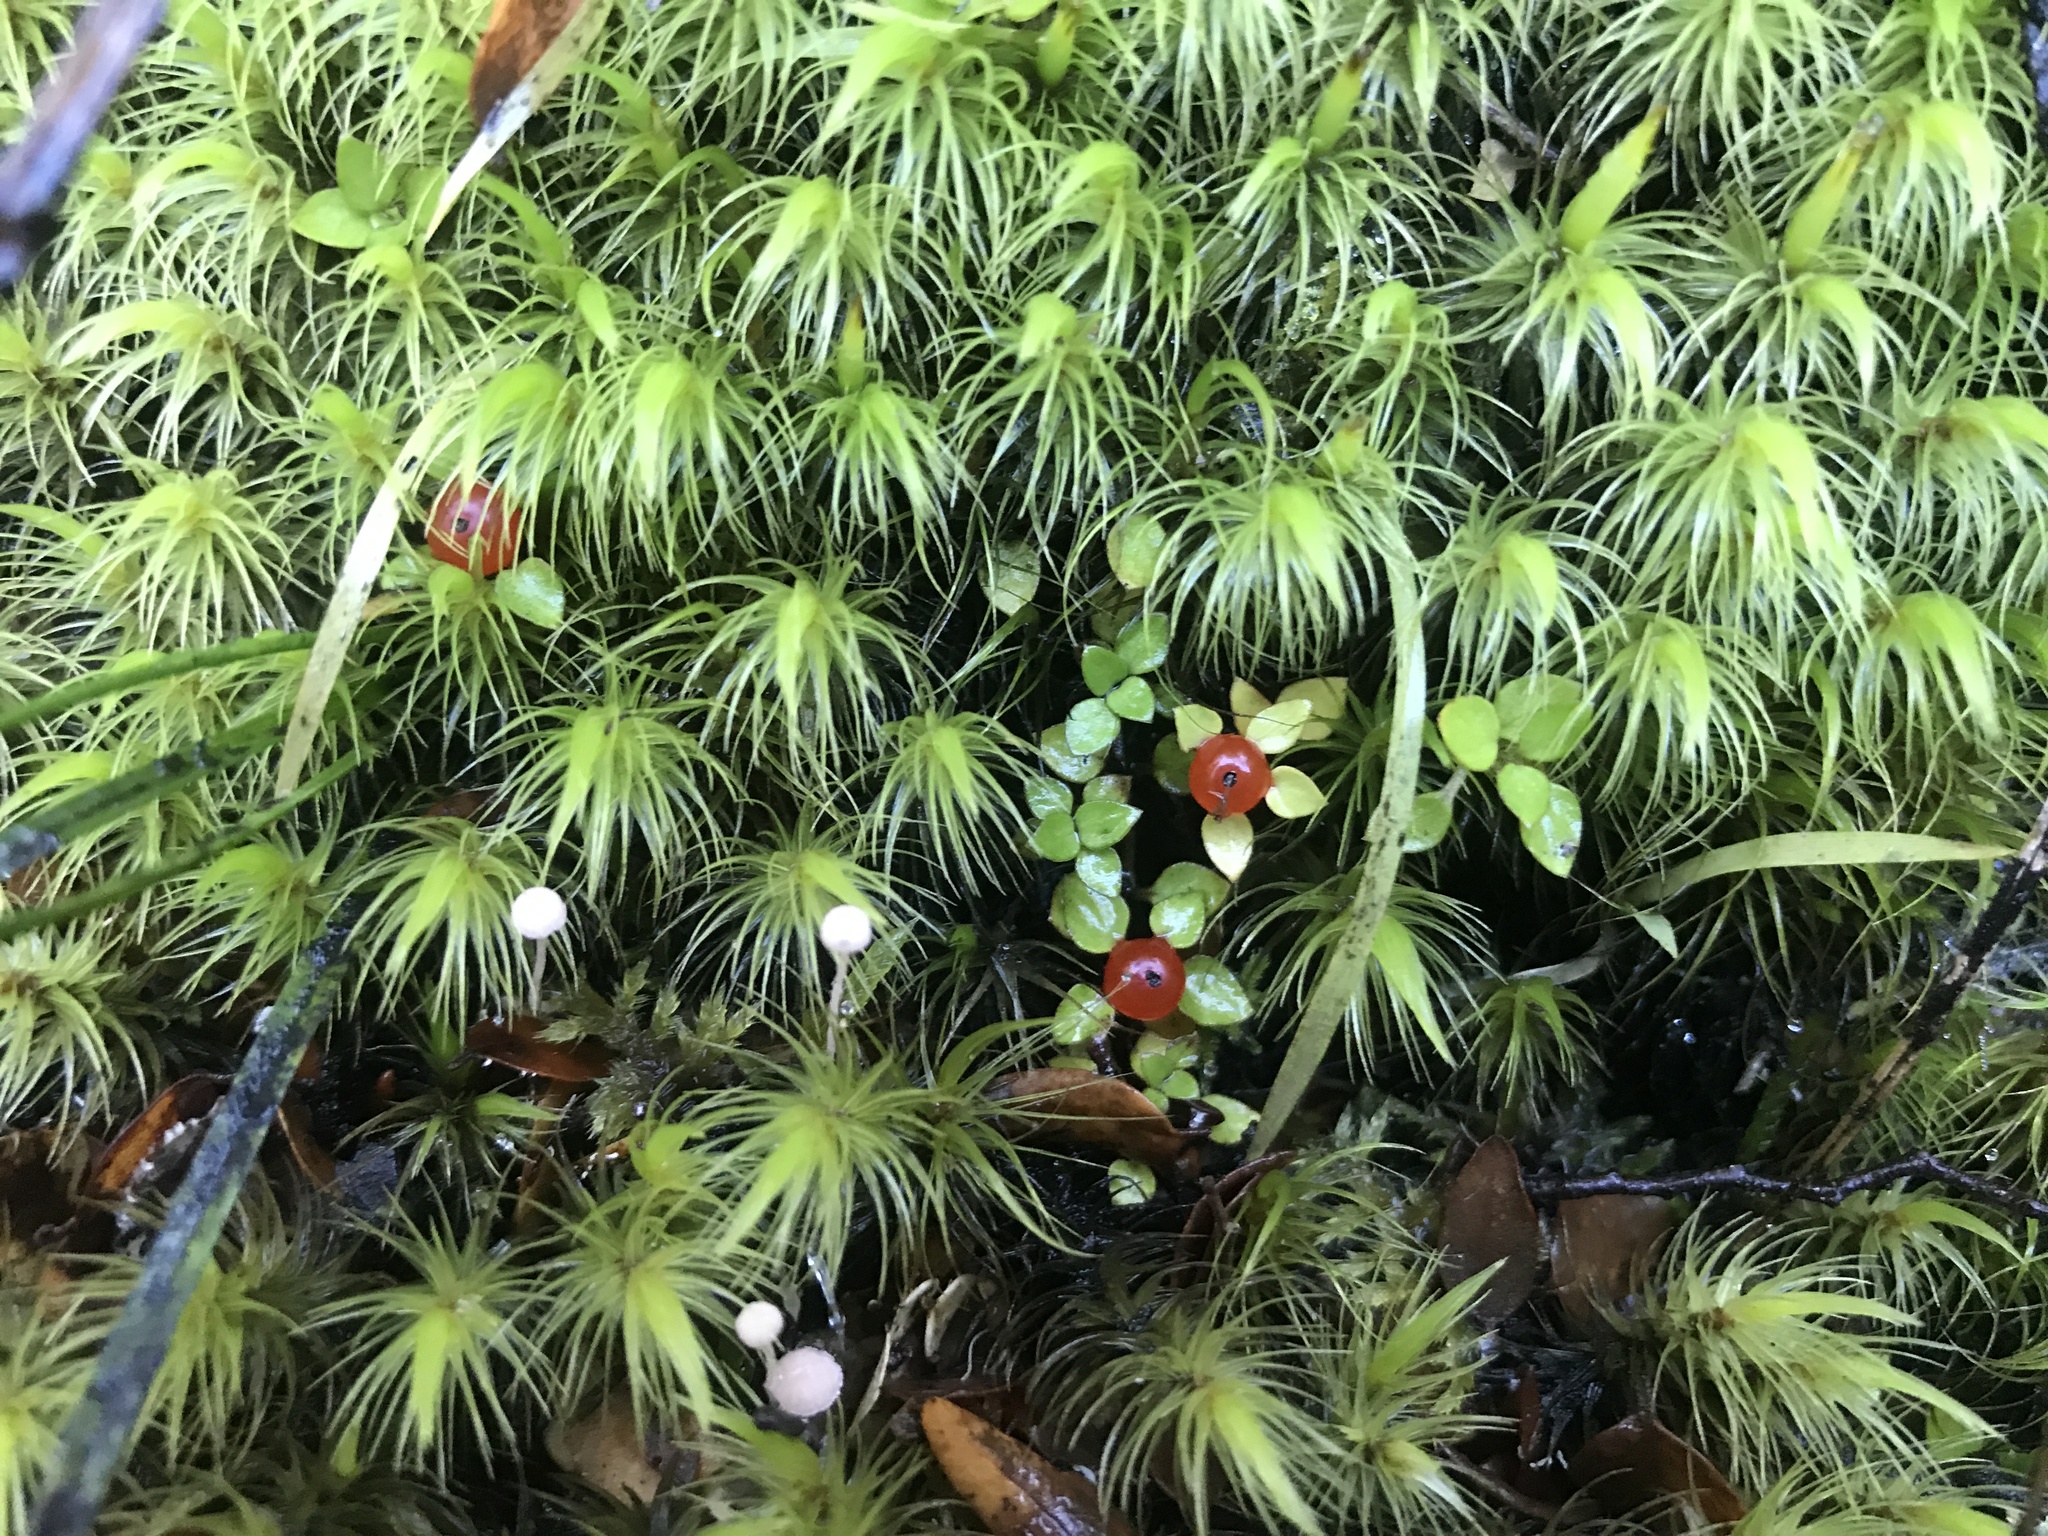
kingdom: Plantae
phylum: Tracheophyta
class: Magnoliopsida
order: Gentianales
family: Rubiaceae
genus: Nertera
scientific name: Nertera granadensis
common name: Beadplant
